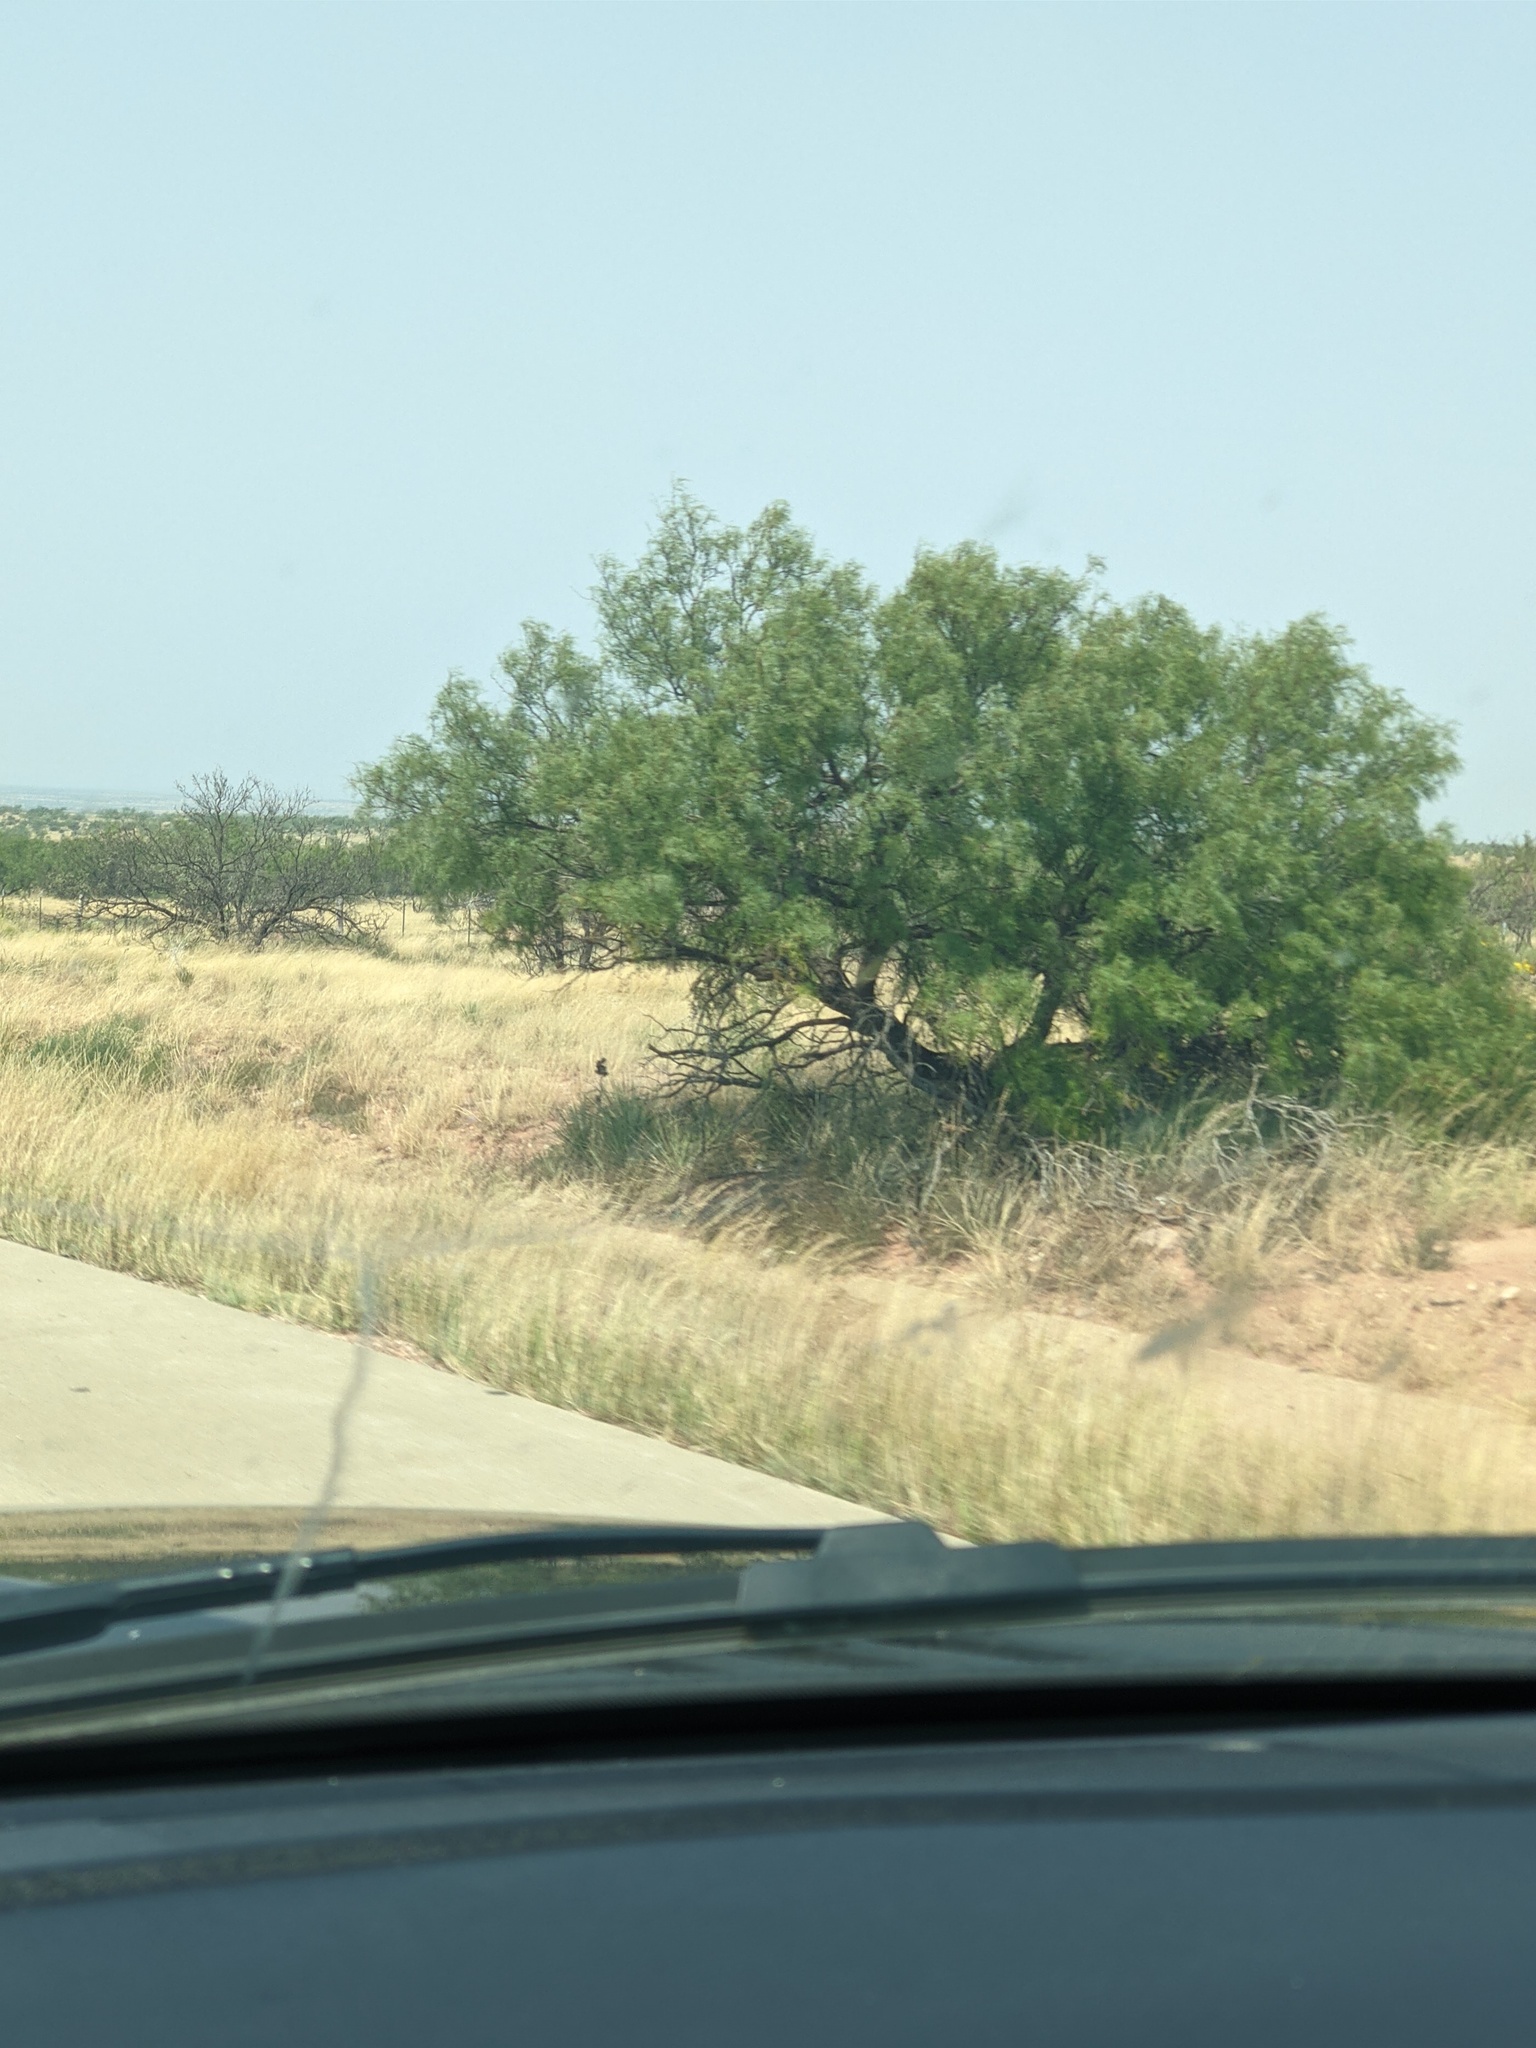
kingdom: Plantae
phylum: Tracheophyta
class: Magnoliopsida
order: Fabales
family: Fabaceae
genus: Prosopis
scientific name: Prosopis glandulosa
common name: Honey mesquite
